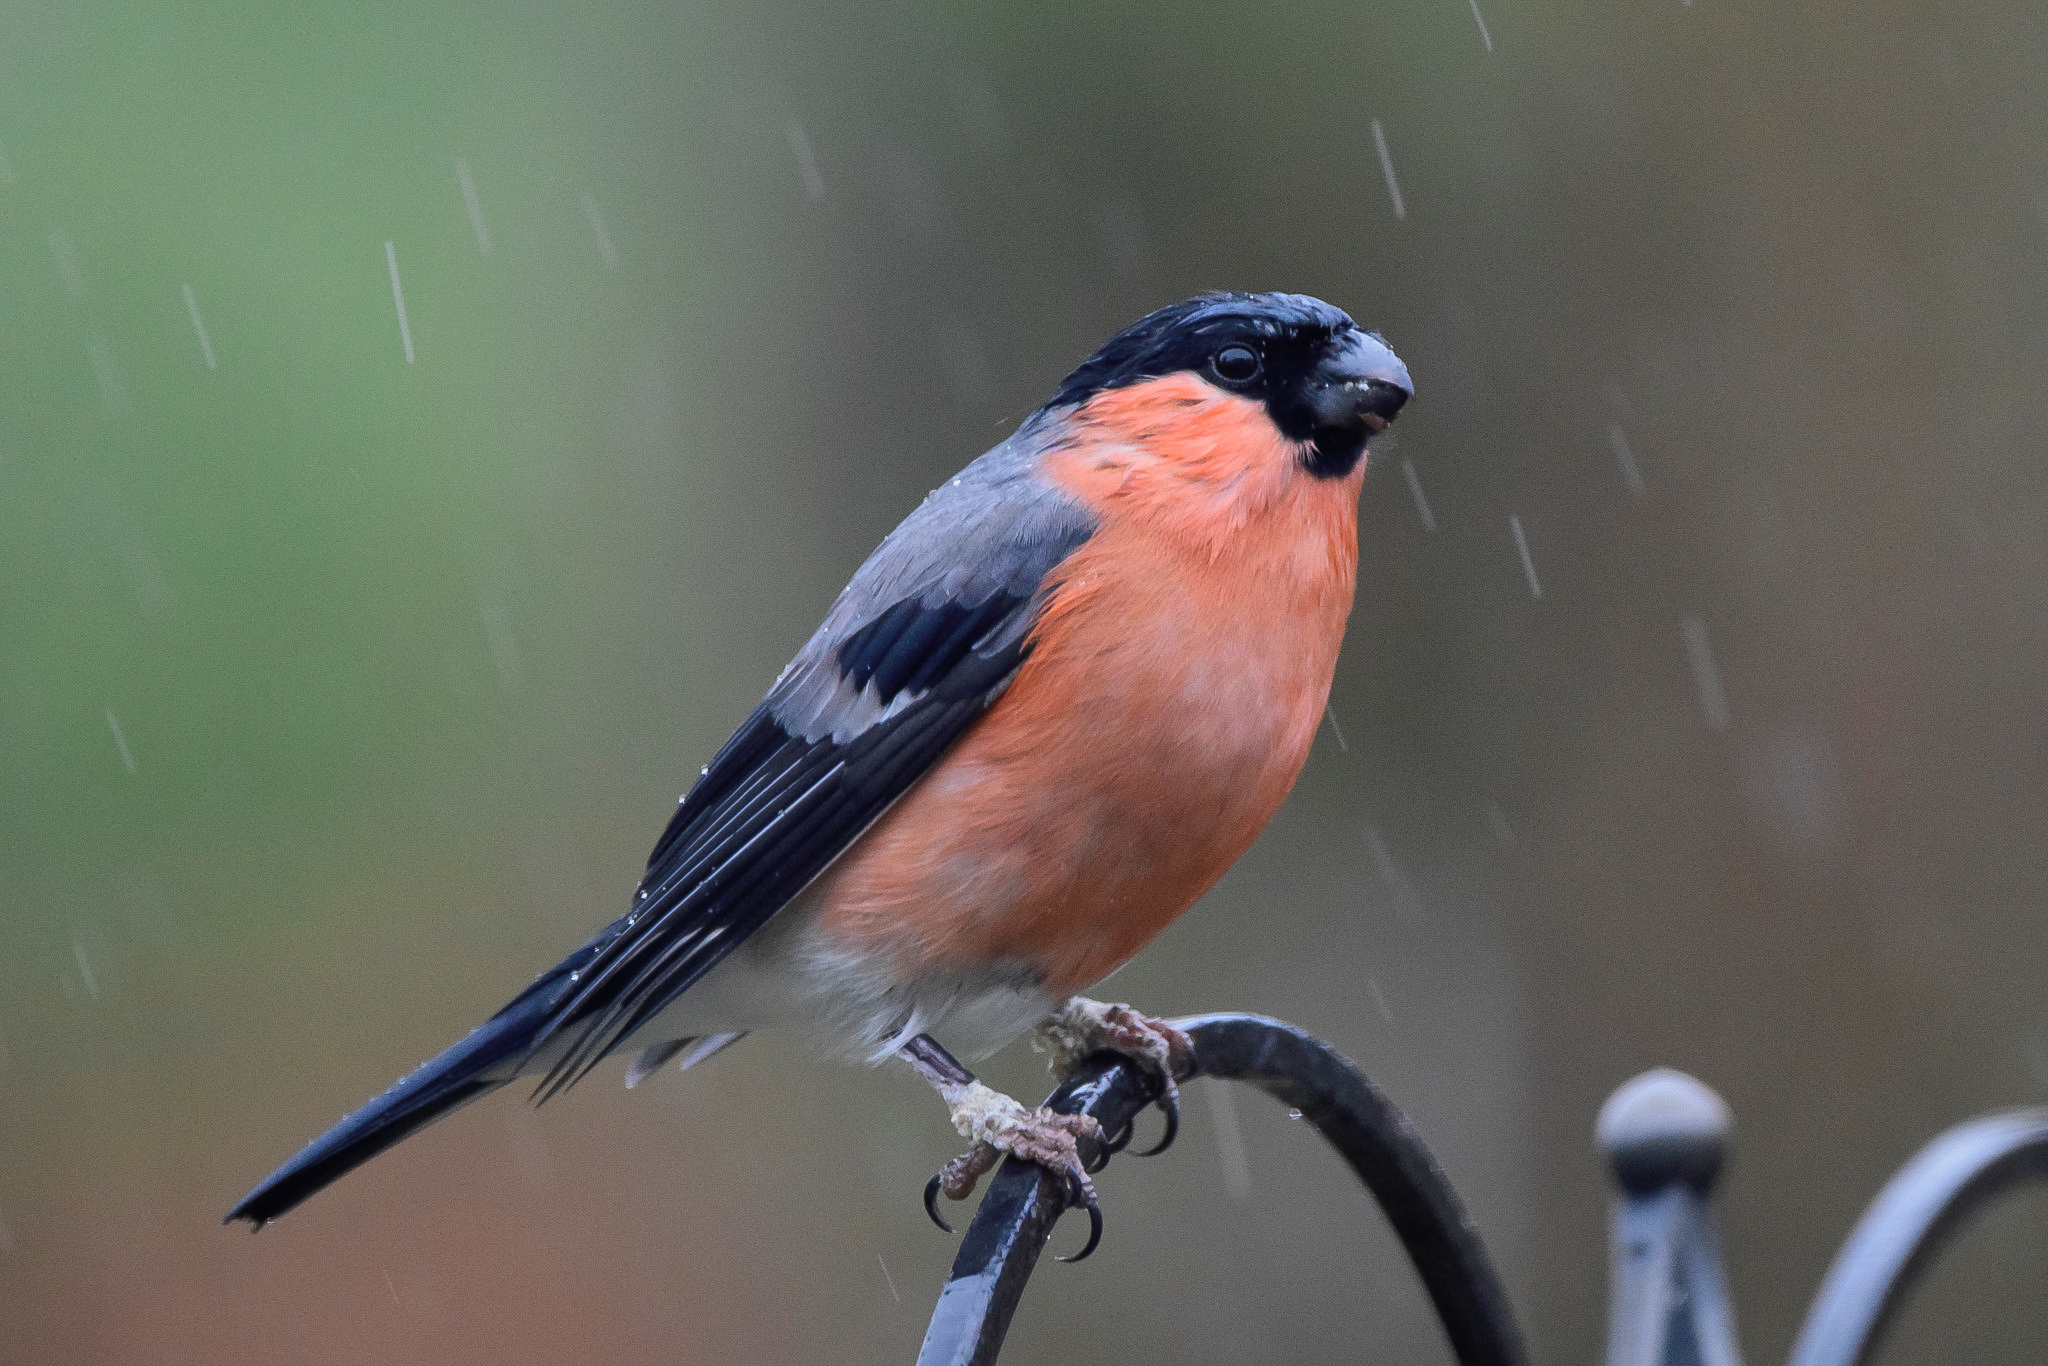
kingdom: Animalia
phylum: Chordata
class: Aves
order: Passeriformes
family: Fringillidae
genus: Pyrrhula
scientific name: Pyrrhula pyrrhula
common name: Eurasian bullfinch
